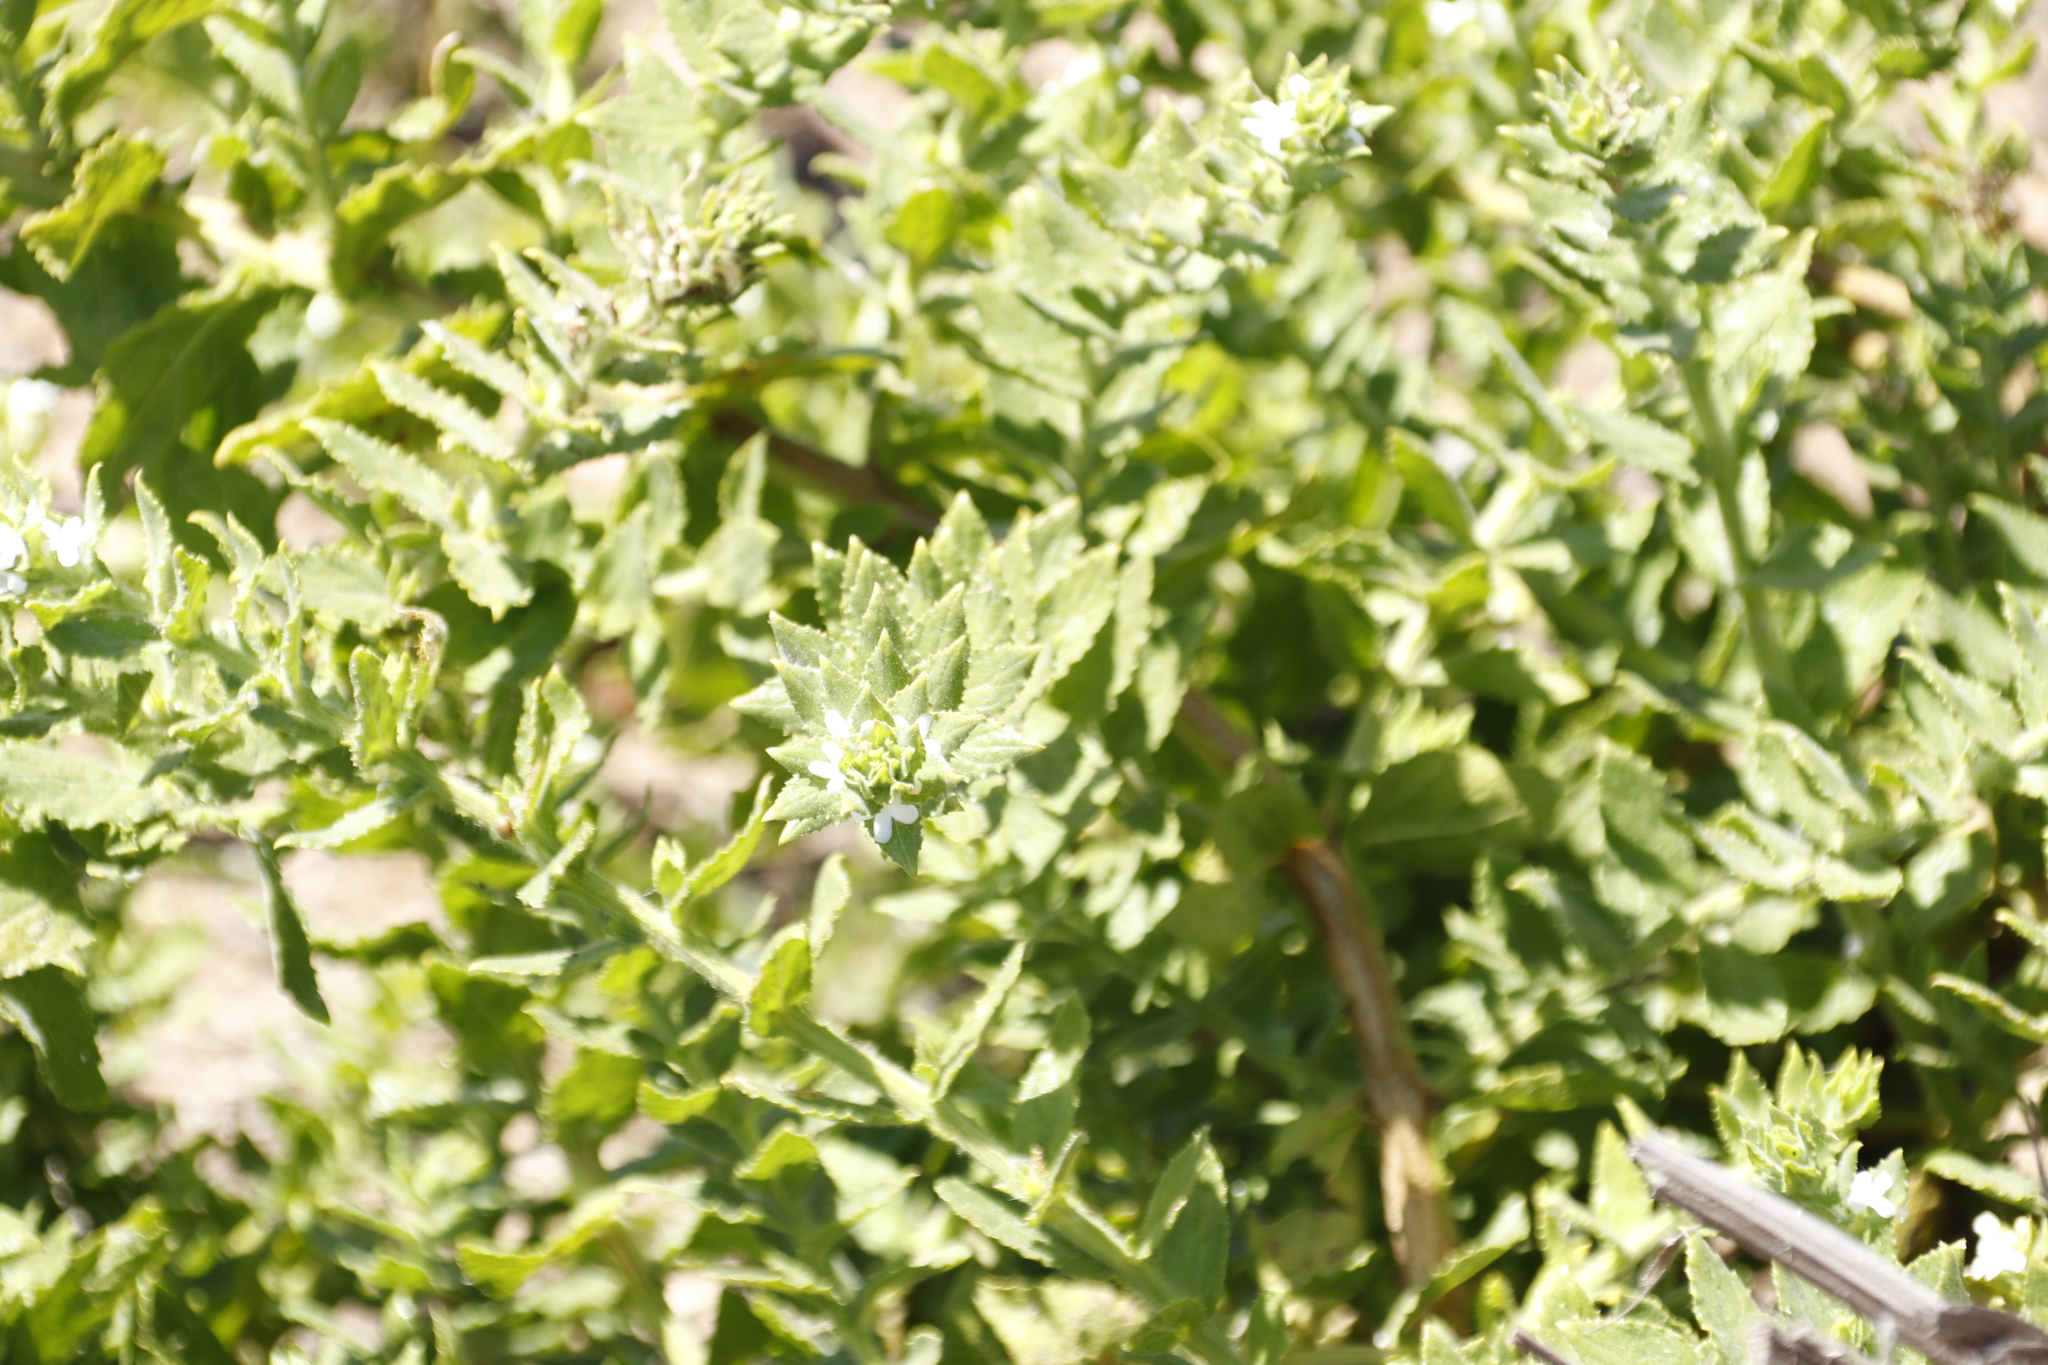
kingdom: Plantae
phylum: Tracheophyta
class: Magnoliopsida
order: Lamiales
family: Scrophulariaceae
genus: Oftia
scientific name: Oftia africana
